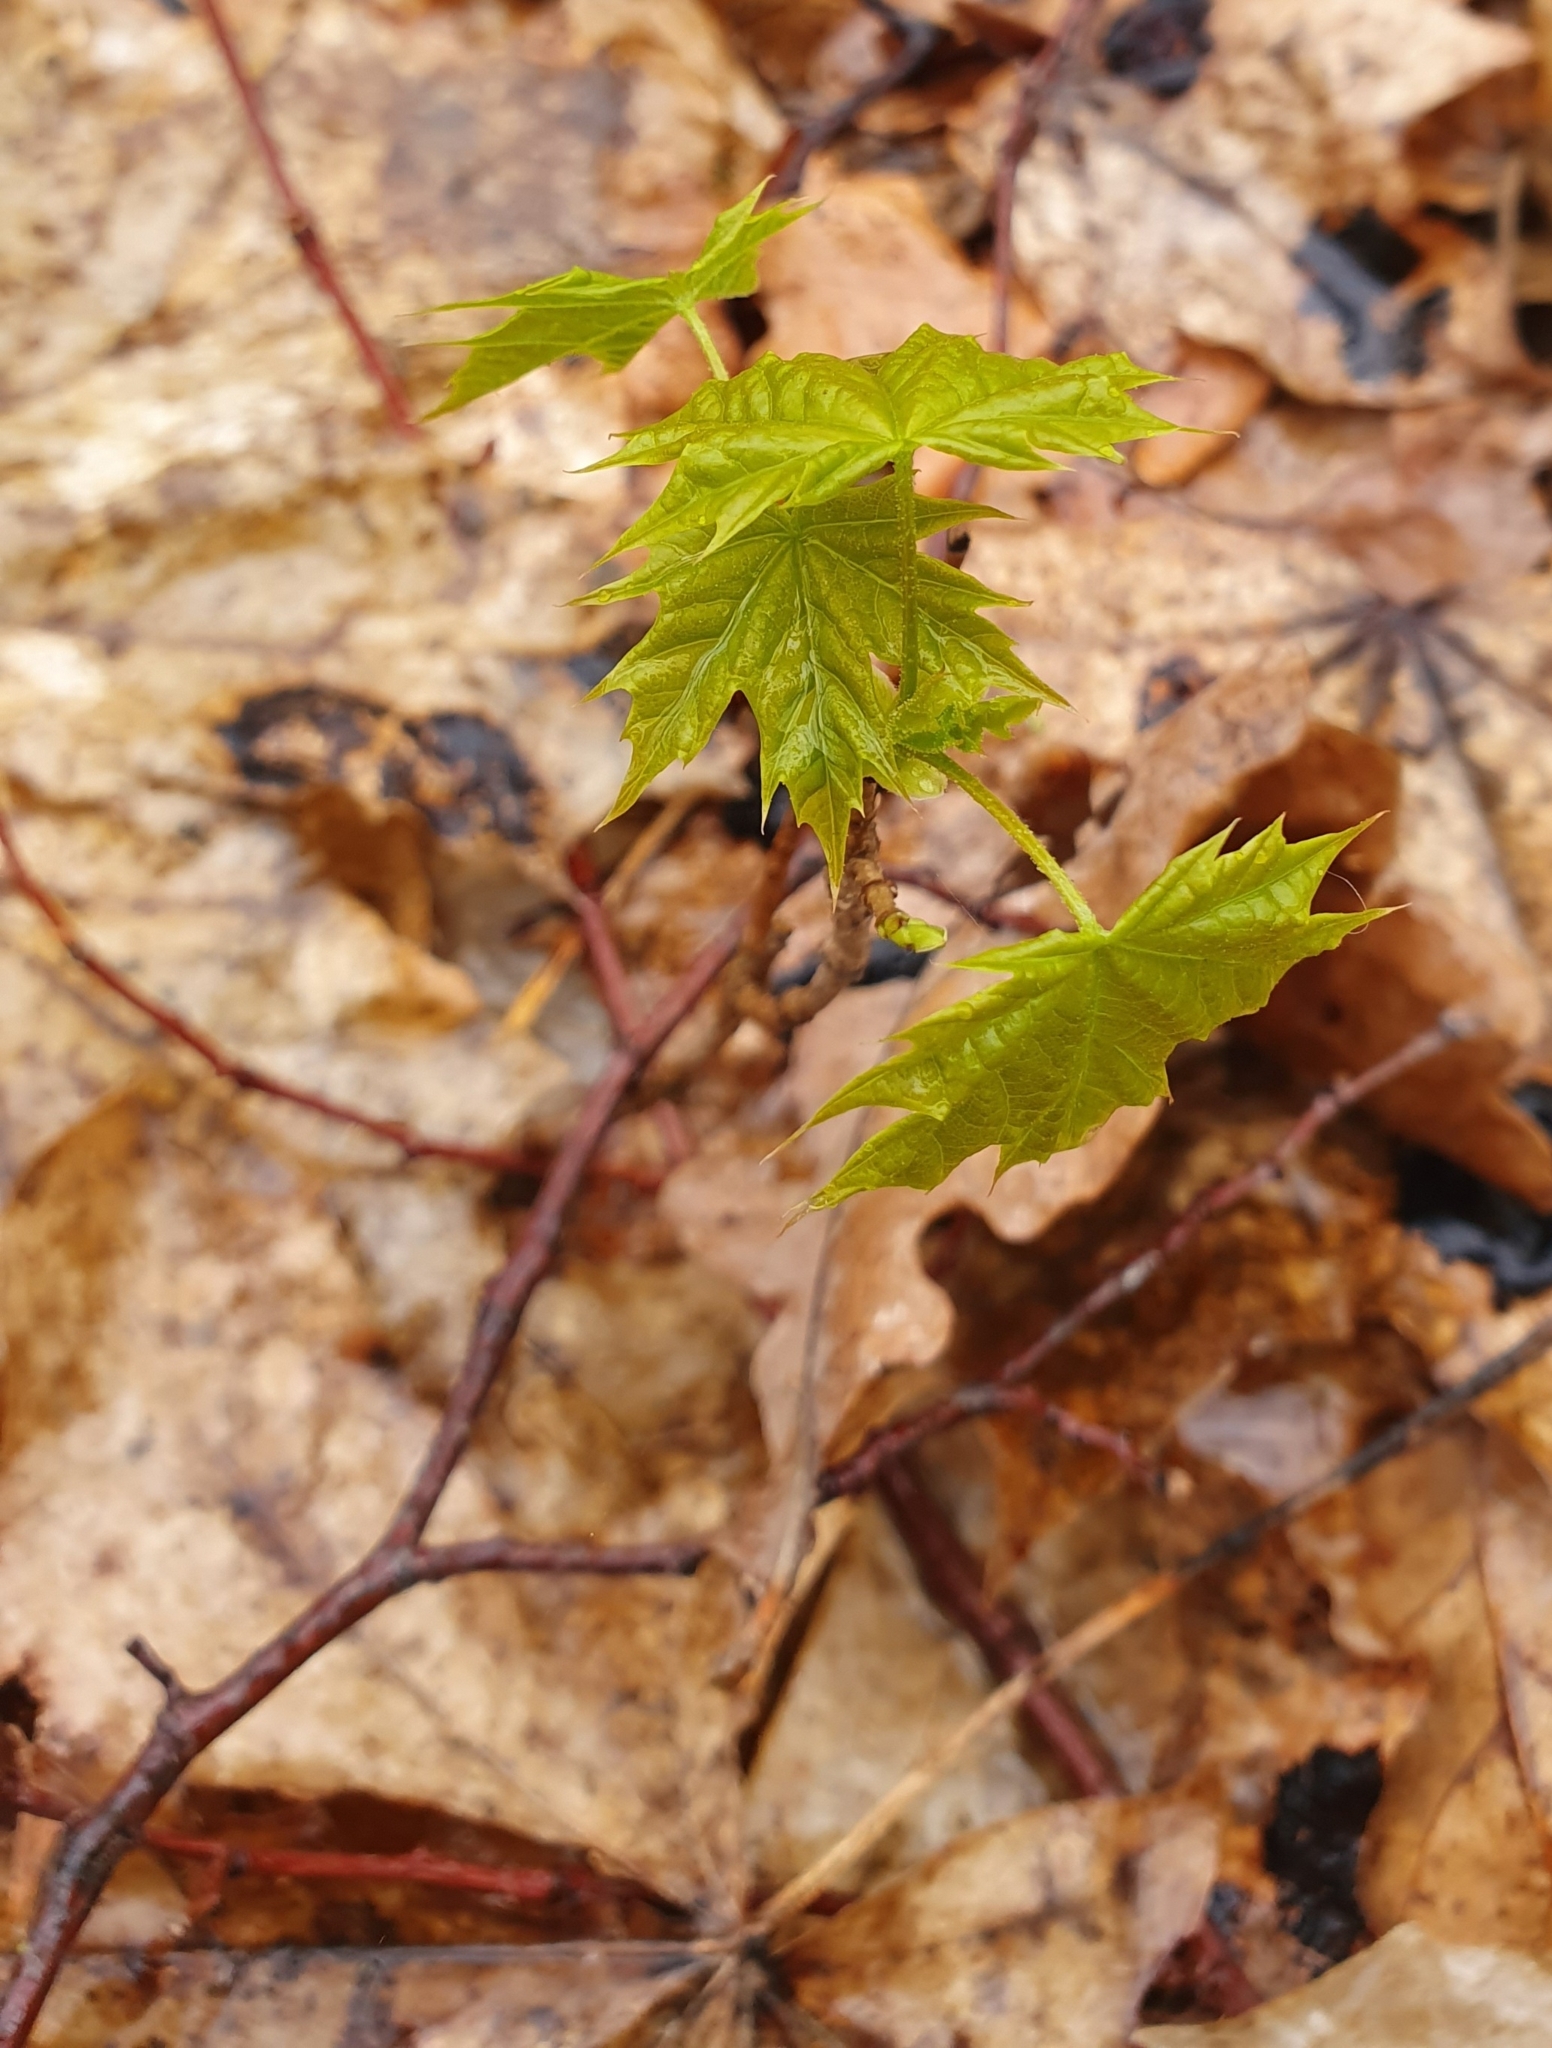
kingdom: Plantae
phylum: Tracheophyta
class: Magnoliopsida
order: Sapindales
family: Sapindaceae
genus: Acer
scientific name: Acer platanoides
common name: Norway maple
